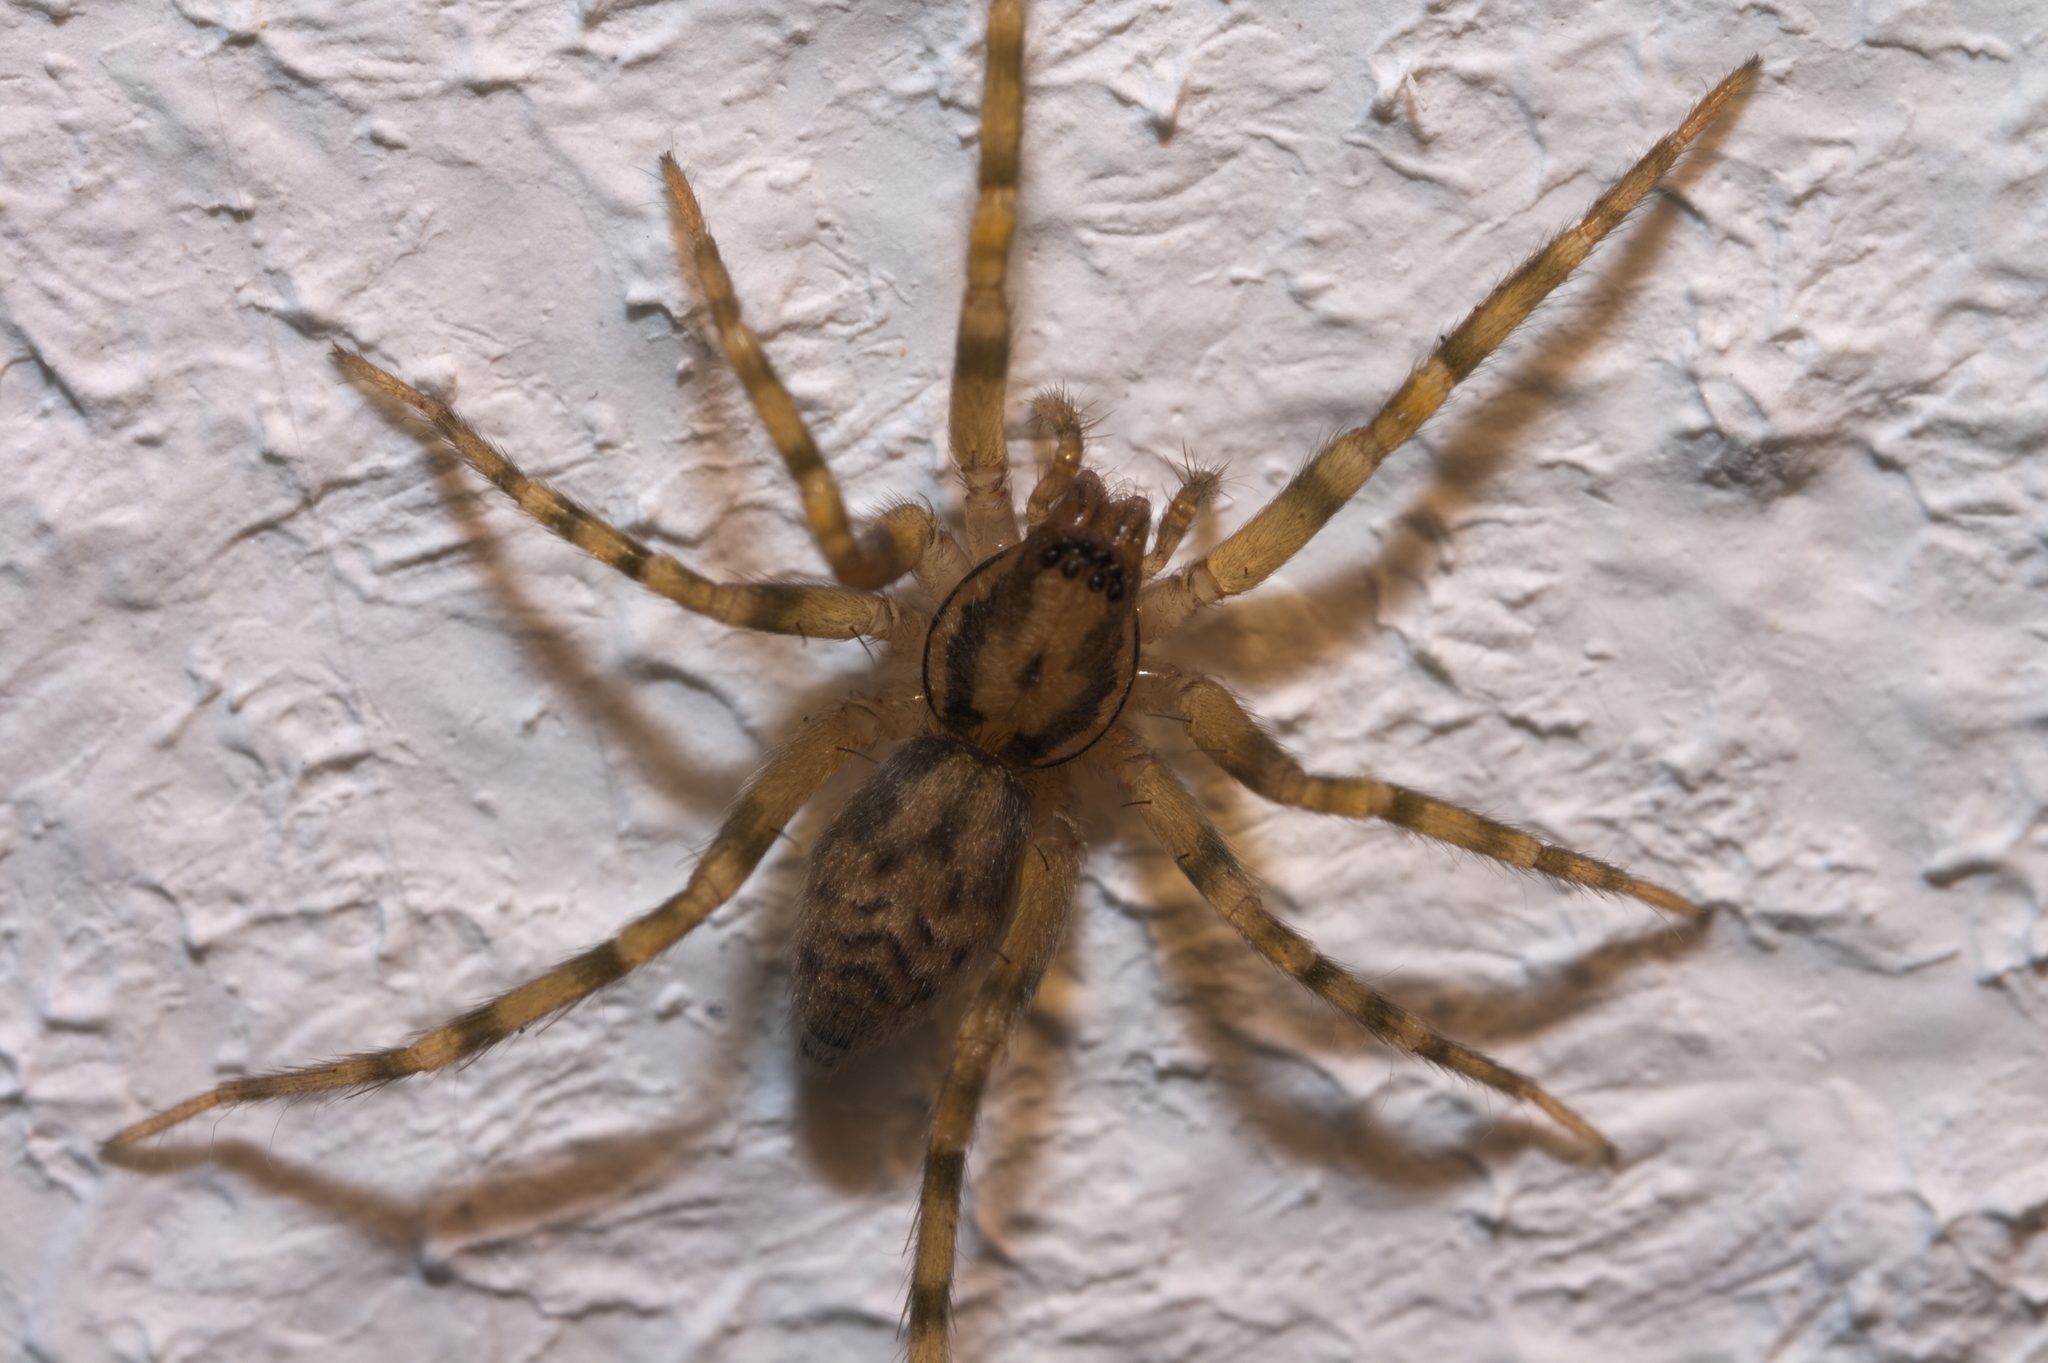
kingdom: Animalia
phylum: Arthropoda
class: Arachnida
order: Araneae
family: Liocranidae
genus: Liocranum
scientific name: Liocranum rupicola
